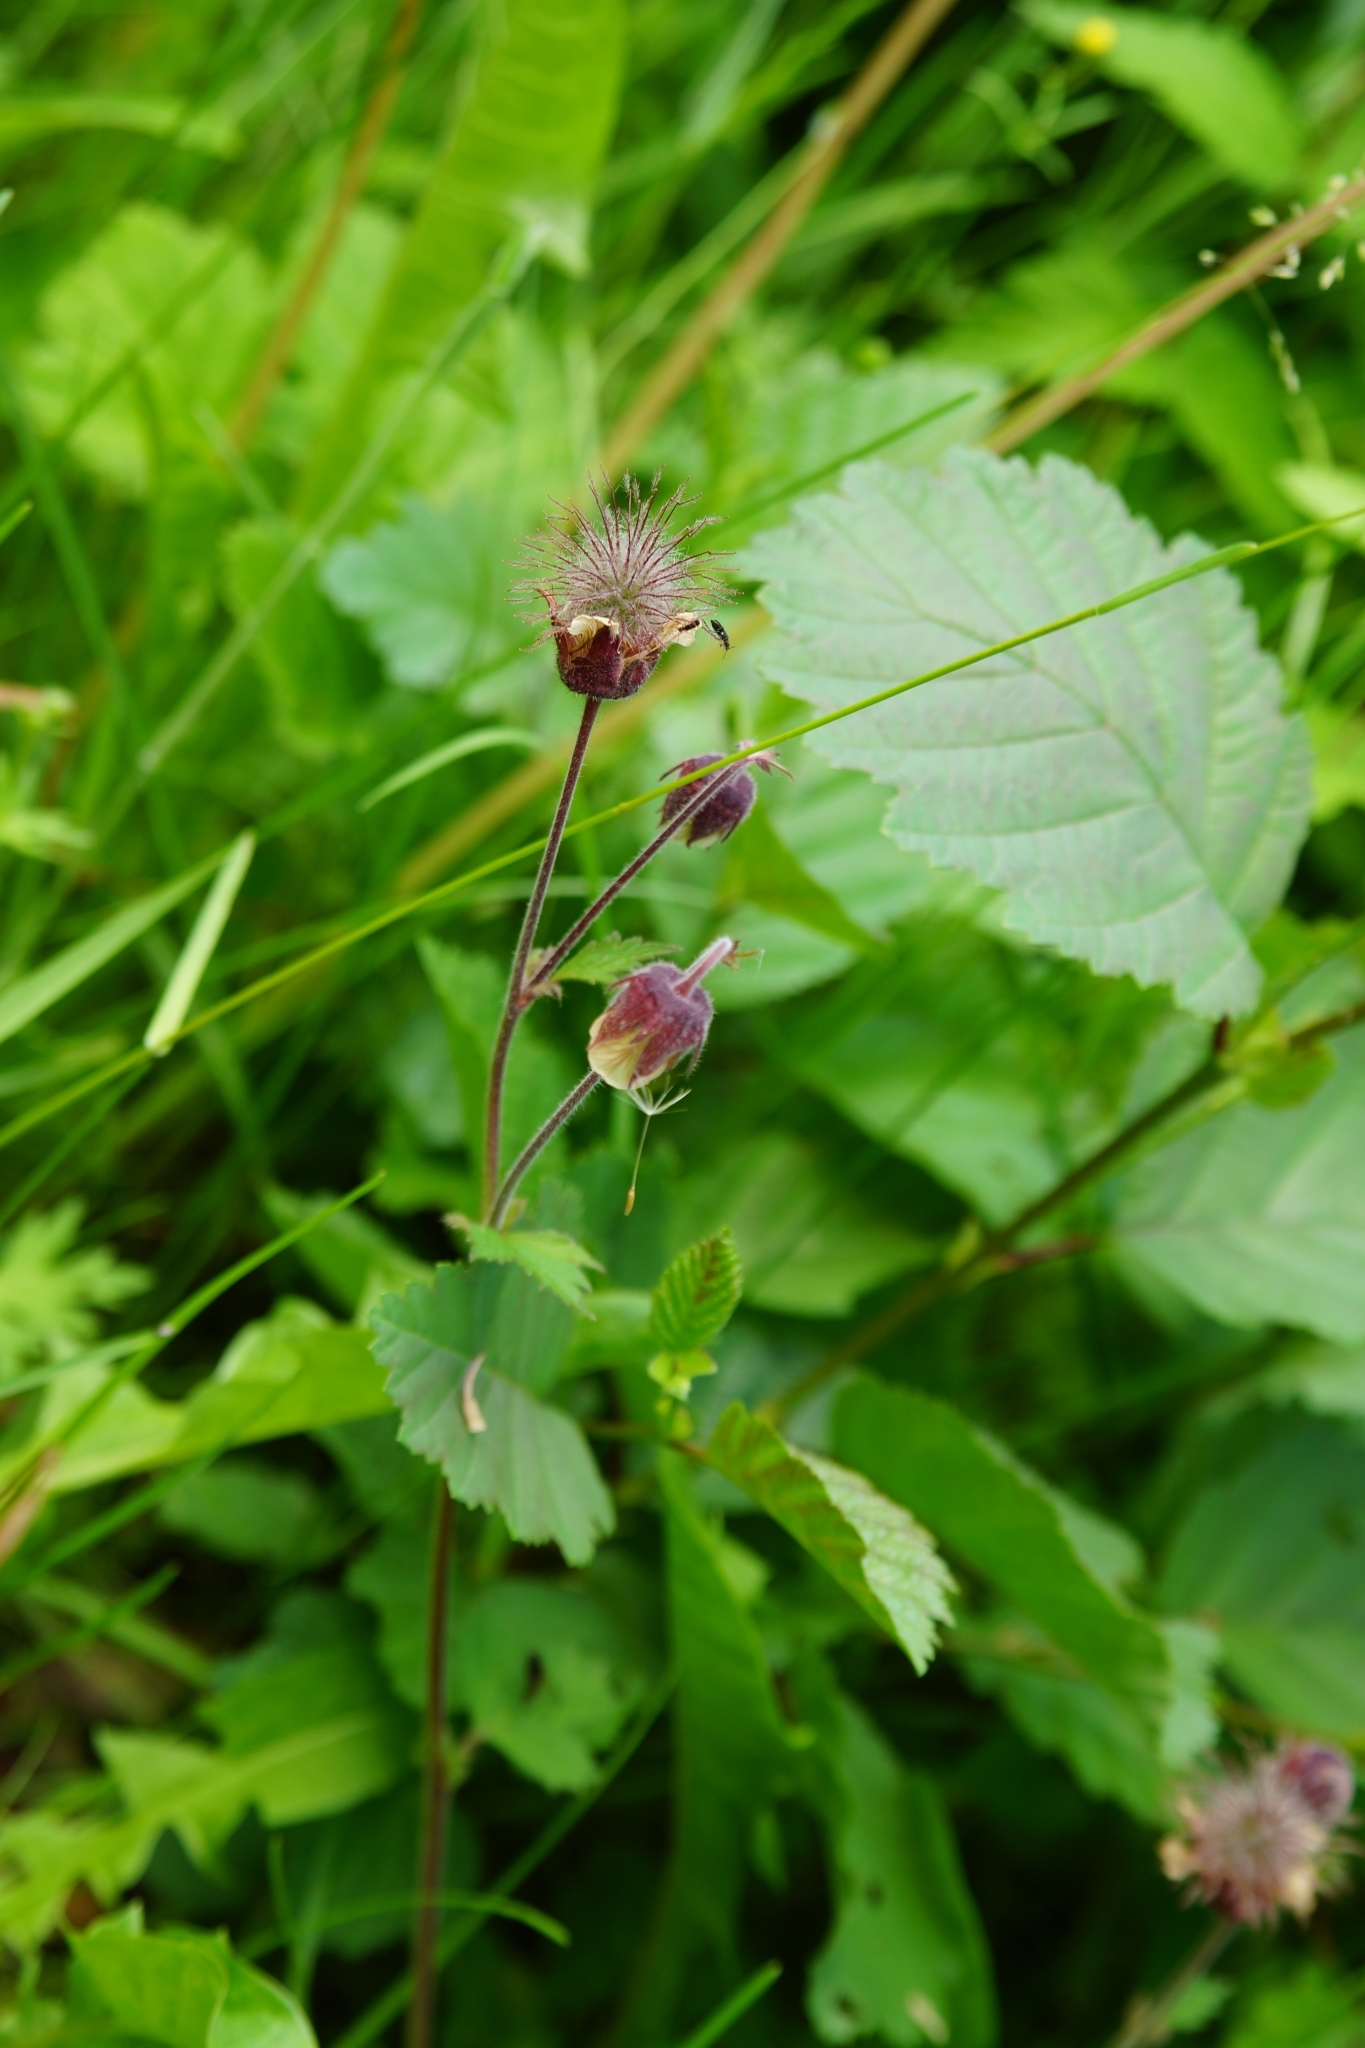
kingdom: Plantae
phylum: Tracheophyta
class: Magnoliopsida
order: Rosales
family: Rosaceae
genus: Geum
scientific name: Geum rivale
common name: Water avens
